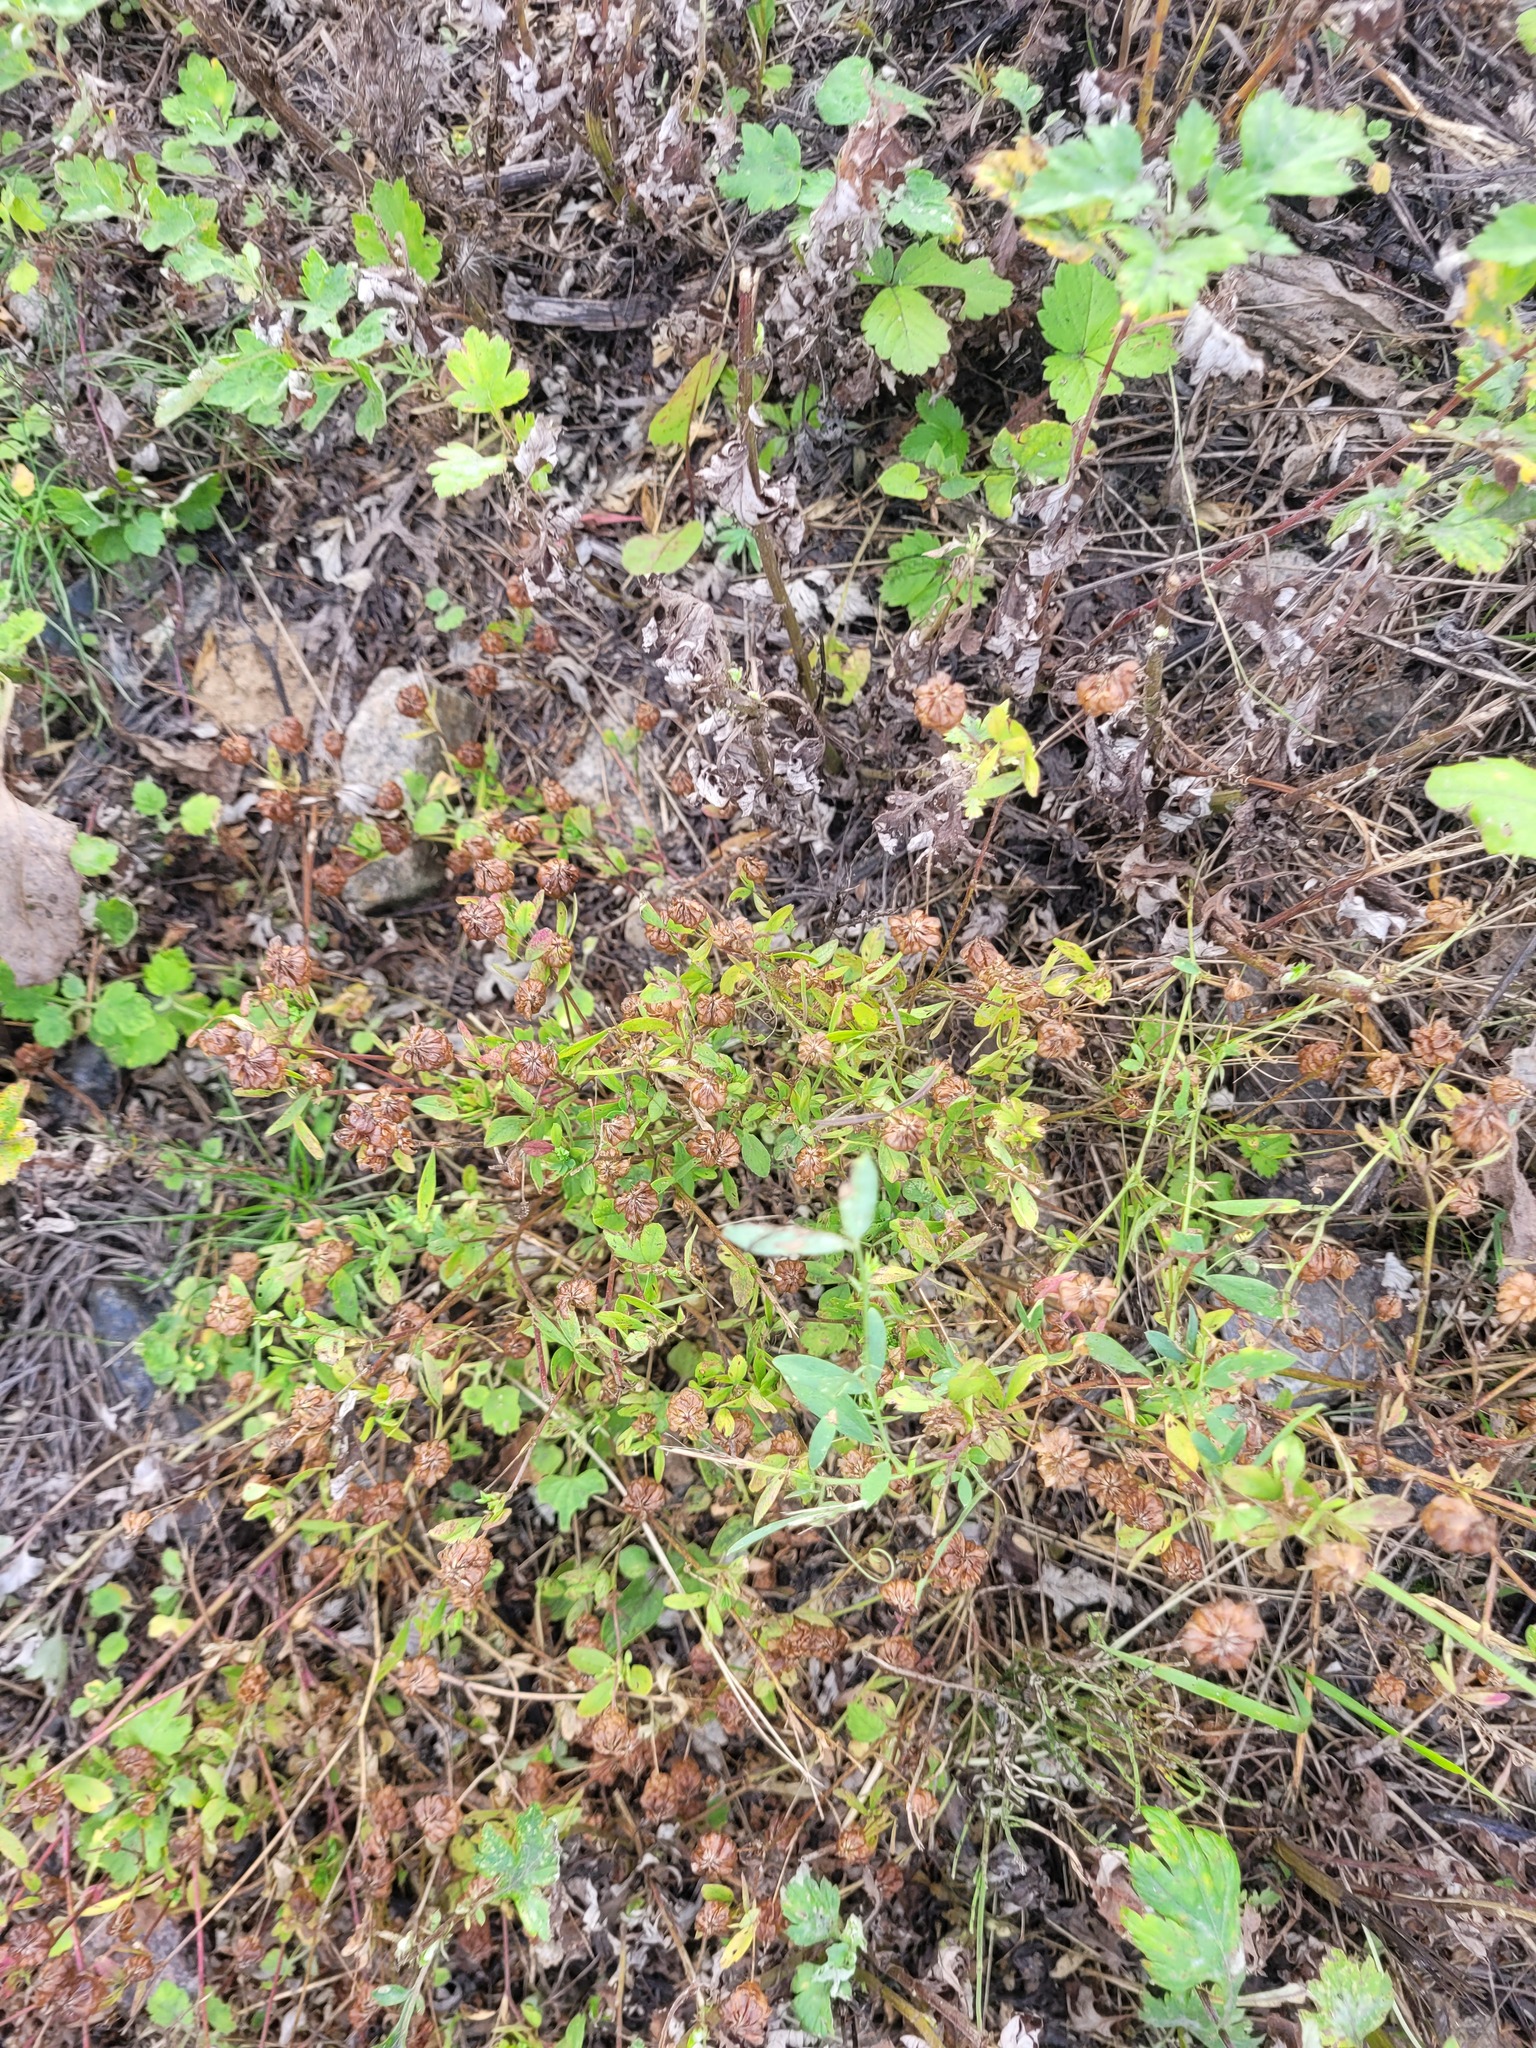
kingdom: Plantae
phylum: Tracheophyta
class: Magnoliopsida
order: Fabales
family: Fabaceae
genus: Trifolium
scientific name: Trifolium aureum
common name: Golden clover
